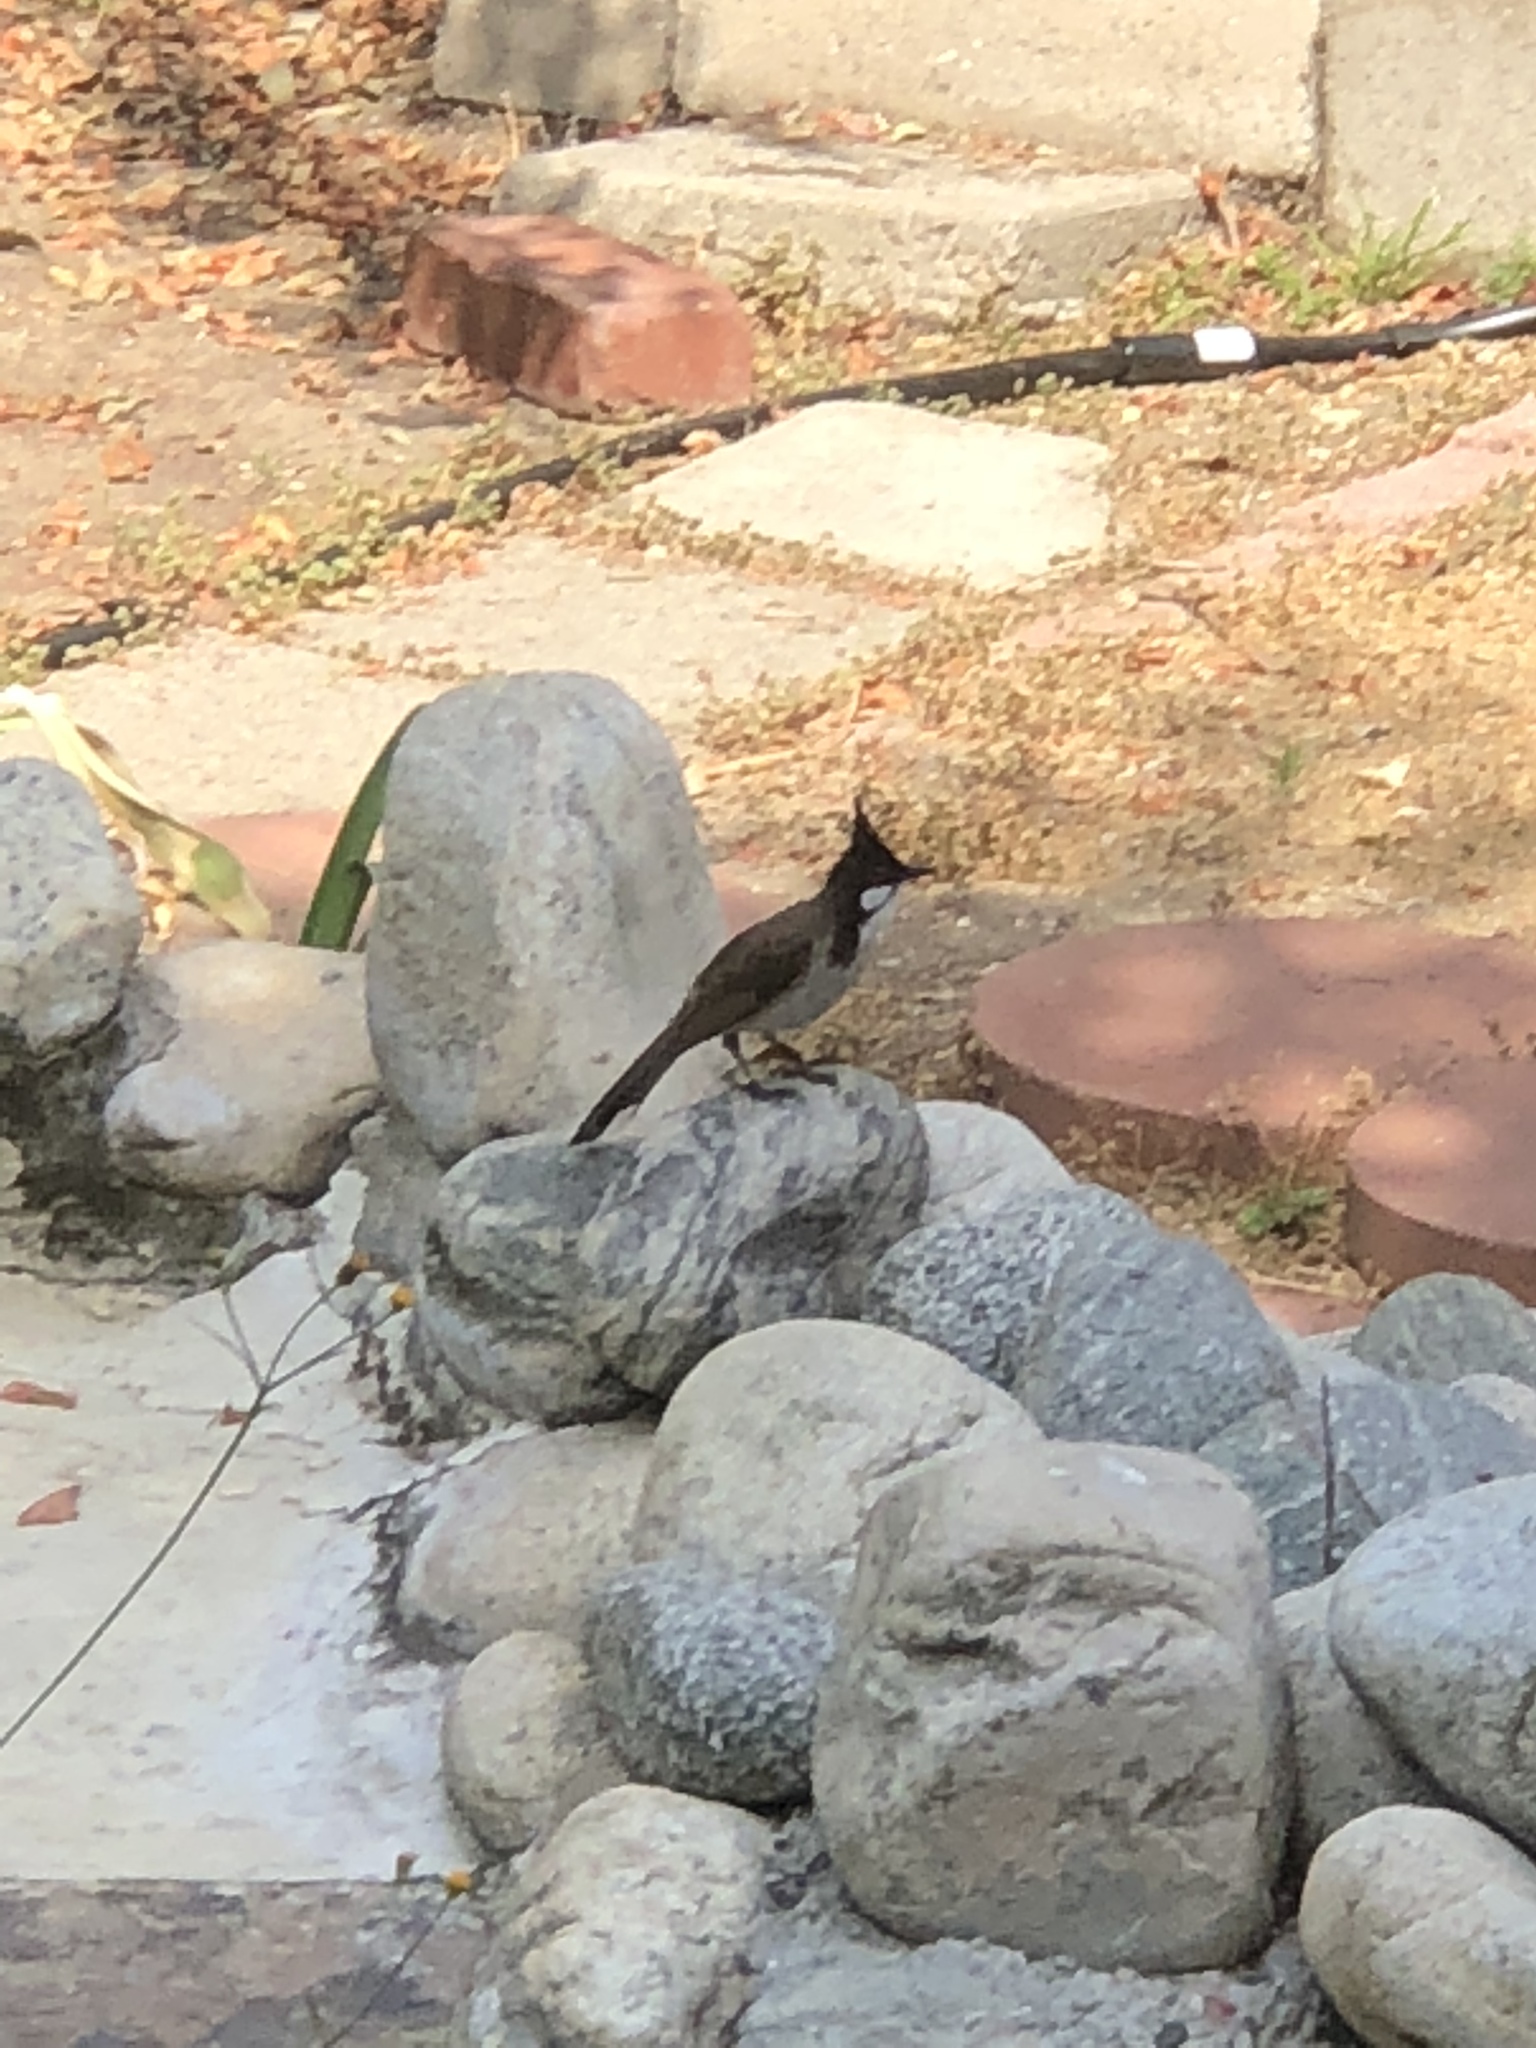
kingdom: Animalia
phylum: Chordata
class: Aves
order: Passeriformes
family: Pycnonotidae
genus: Pycnonotus
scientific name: Pycnonotus jocosus
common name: Red-whiskered bulbul
